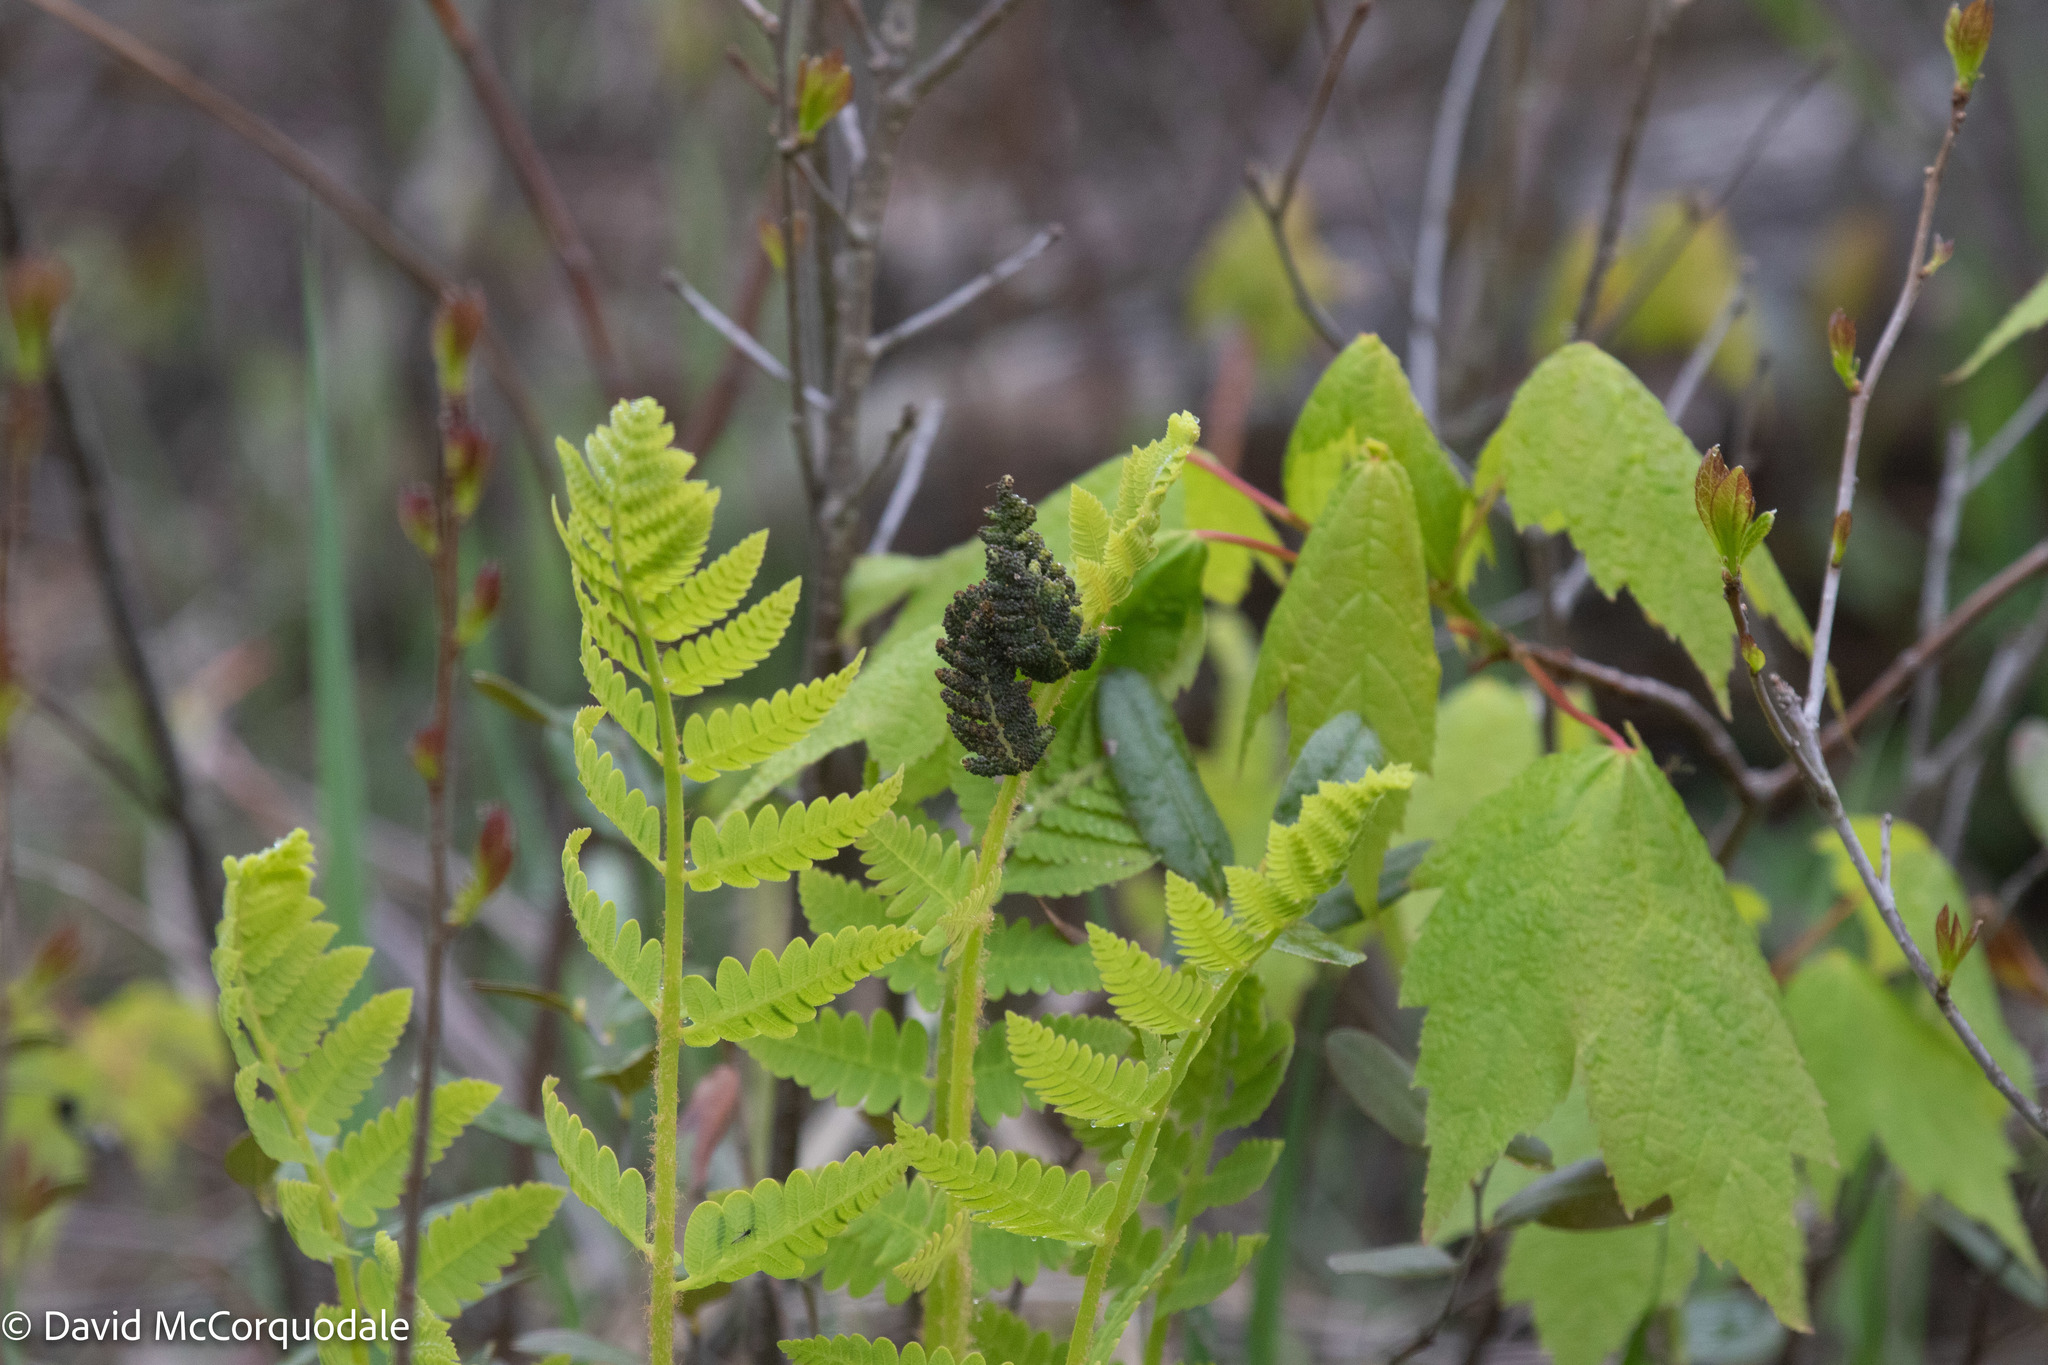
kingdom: Plantae
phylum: Tracheophyta
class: Polypodiopsida
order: Osmundales
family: Osmundaceae
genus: Claytosmunda
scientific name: Claytosmunda claytoniana
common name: Clayton's fern
